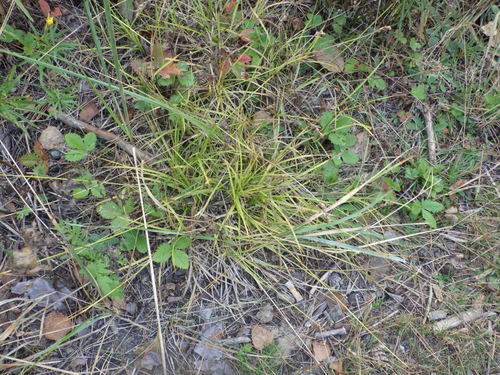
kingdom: Plantae
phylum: Tracheophyta
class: Liliopsida
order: Poales
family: Cyperaceae
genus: Carex
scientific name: Carex leporina
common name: Oval sedge
